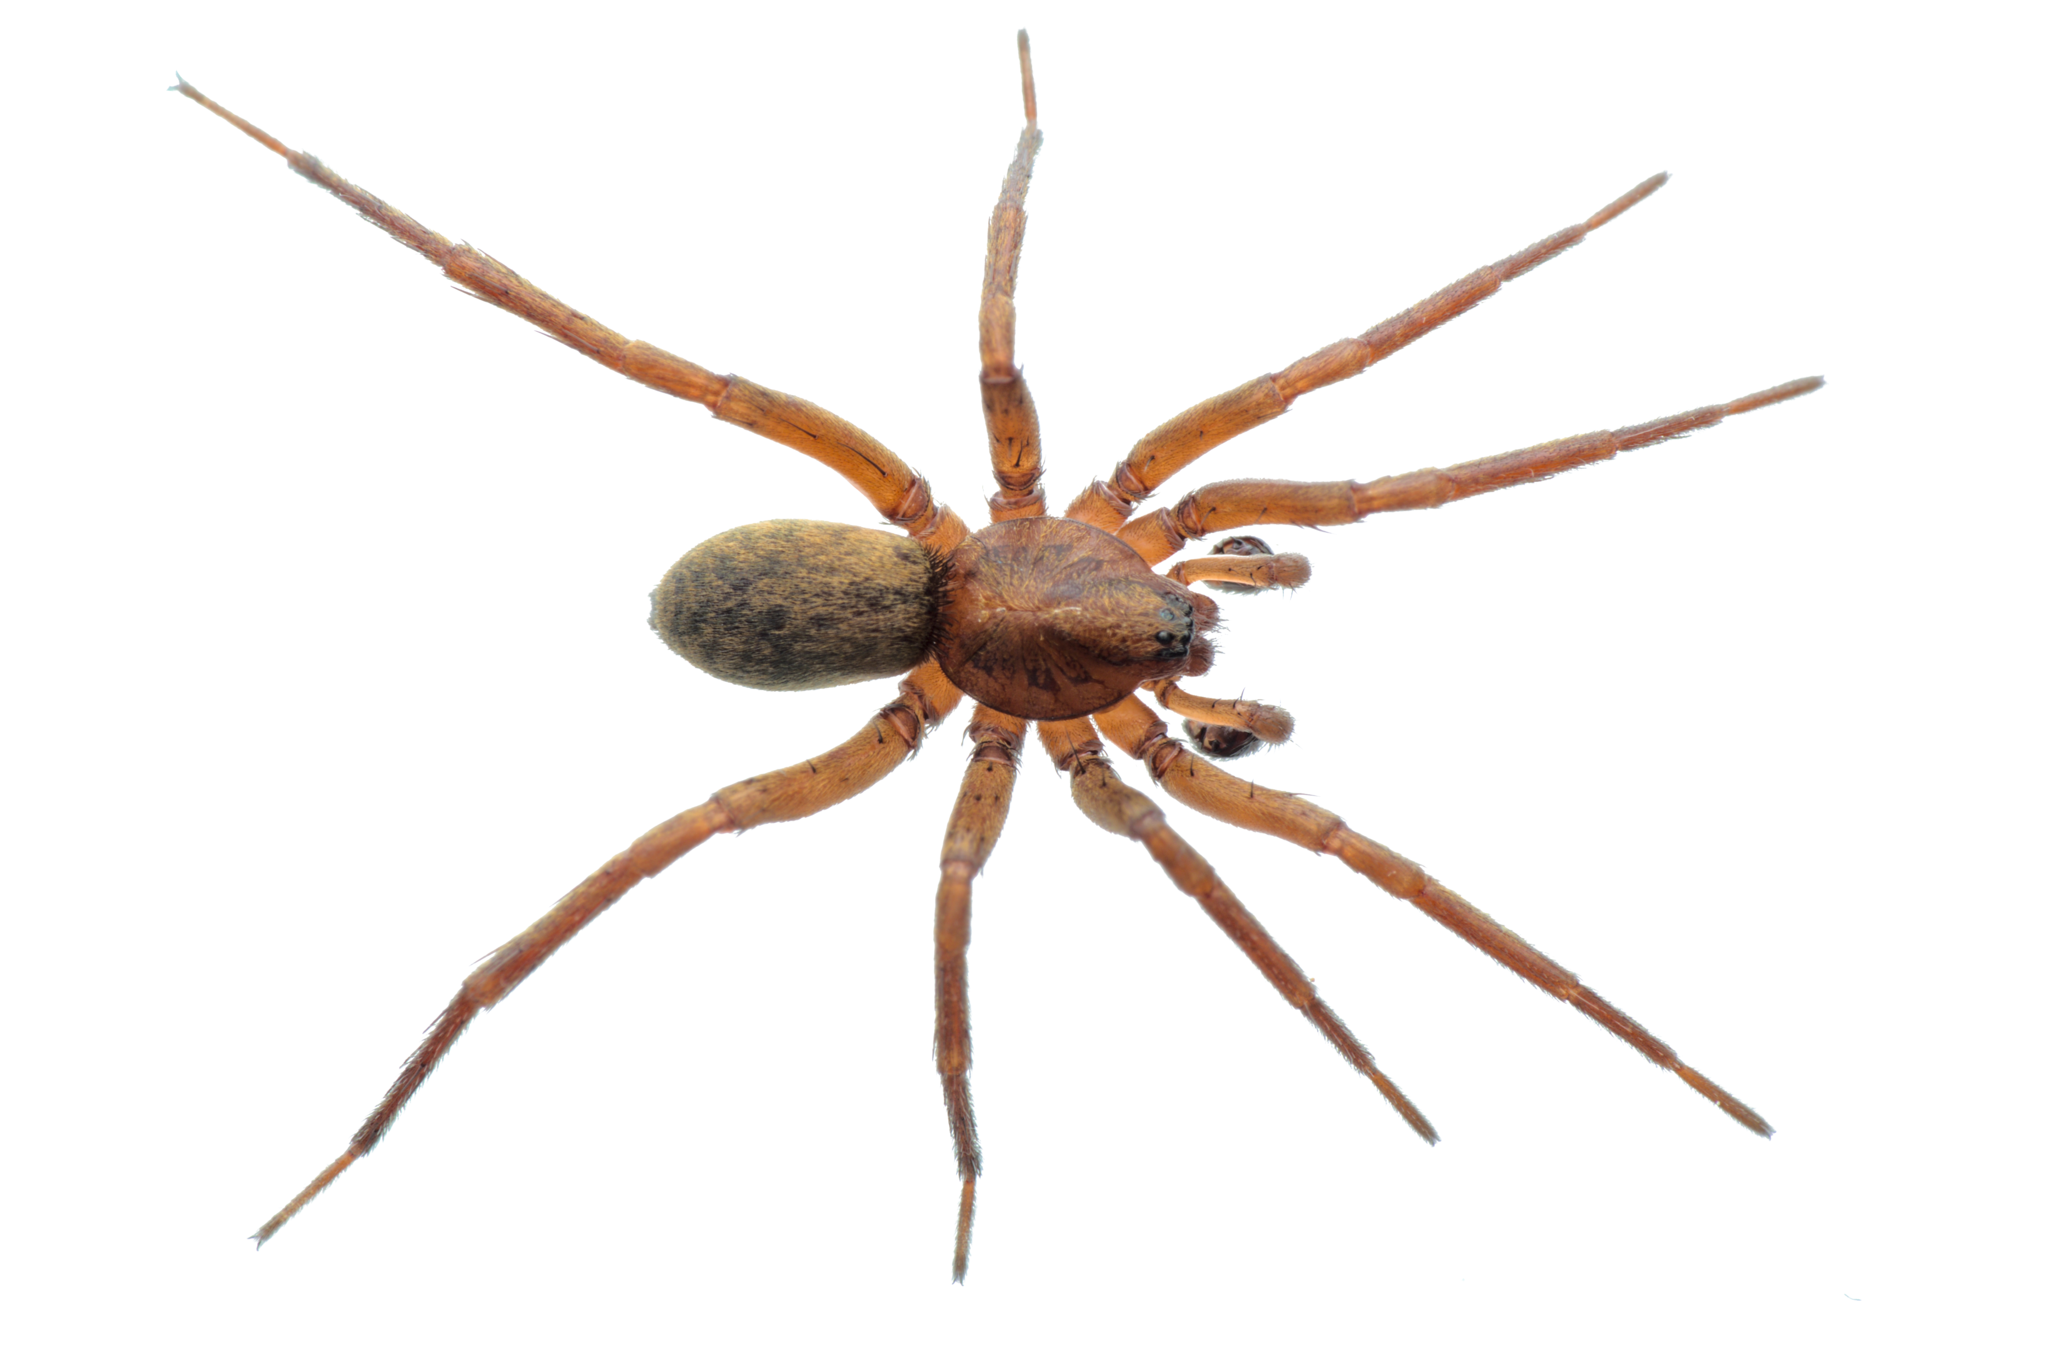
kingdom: Animalia
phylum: Arthropoda
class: Arachnida
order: Araneae
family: Liocranidae
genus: Agroeca
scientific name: Agroeca brunnea
